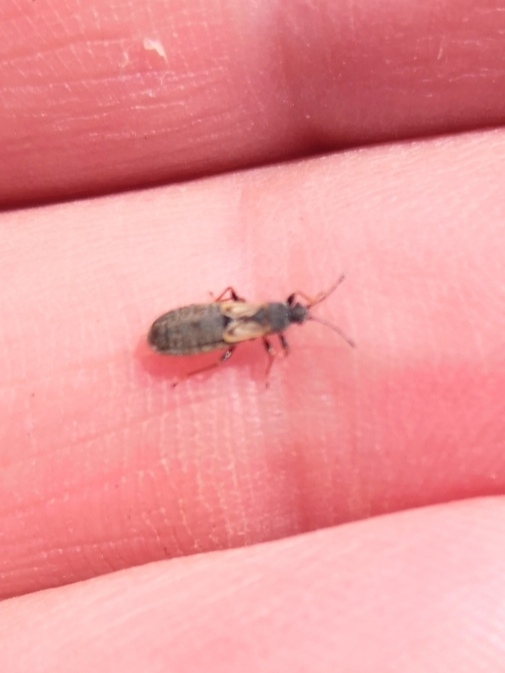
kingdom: Animalia
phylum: Arthropoda
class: Insecta
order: Hemiptera
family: Blissidae
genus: Ischnodemus
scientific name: Ischnodemus sabuleti
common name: European cinchbug
